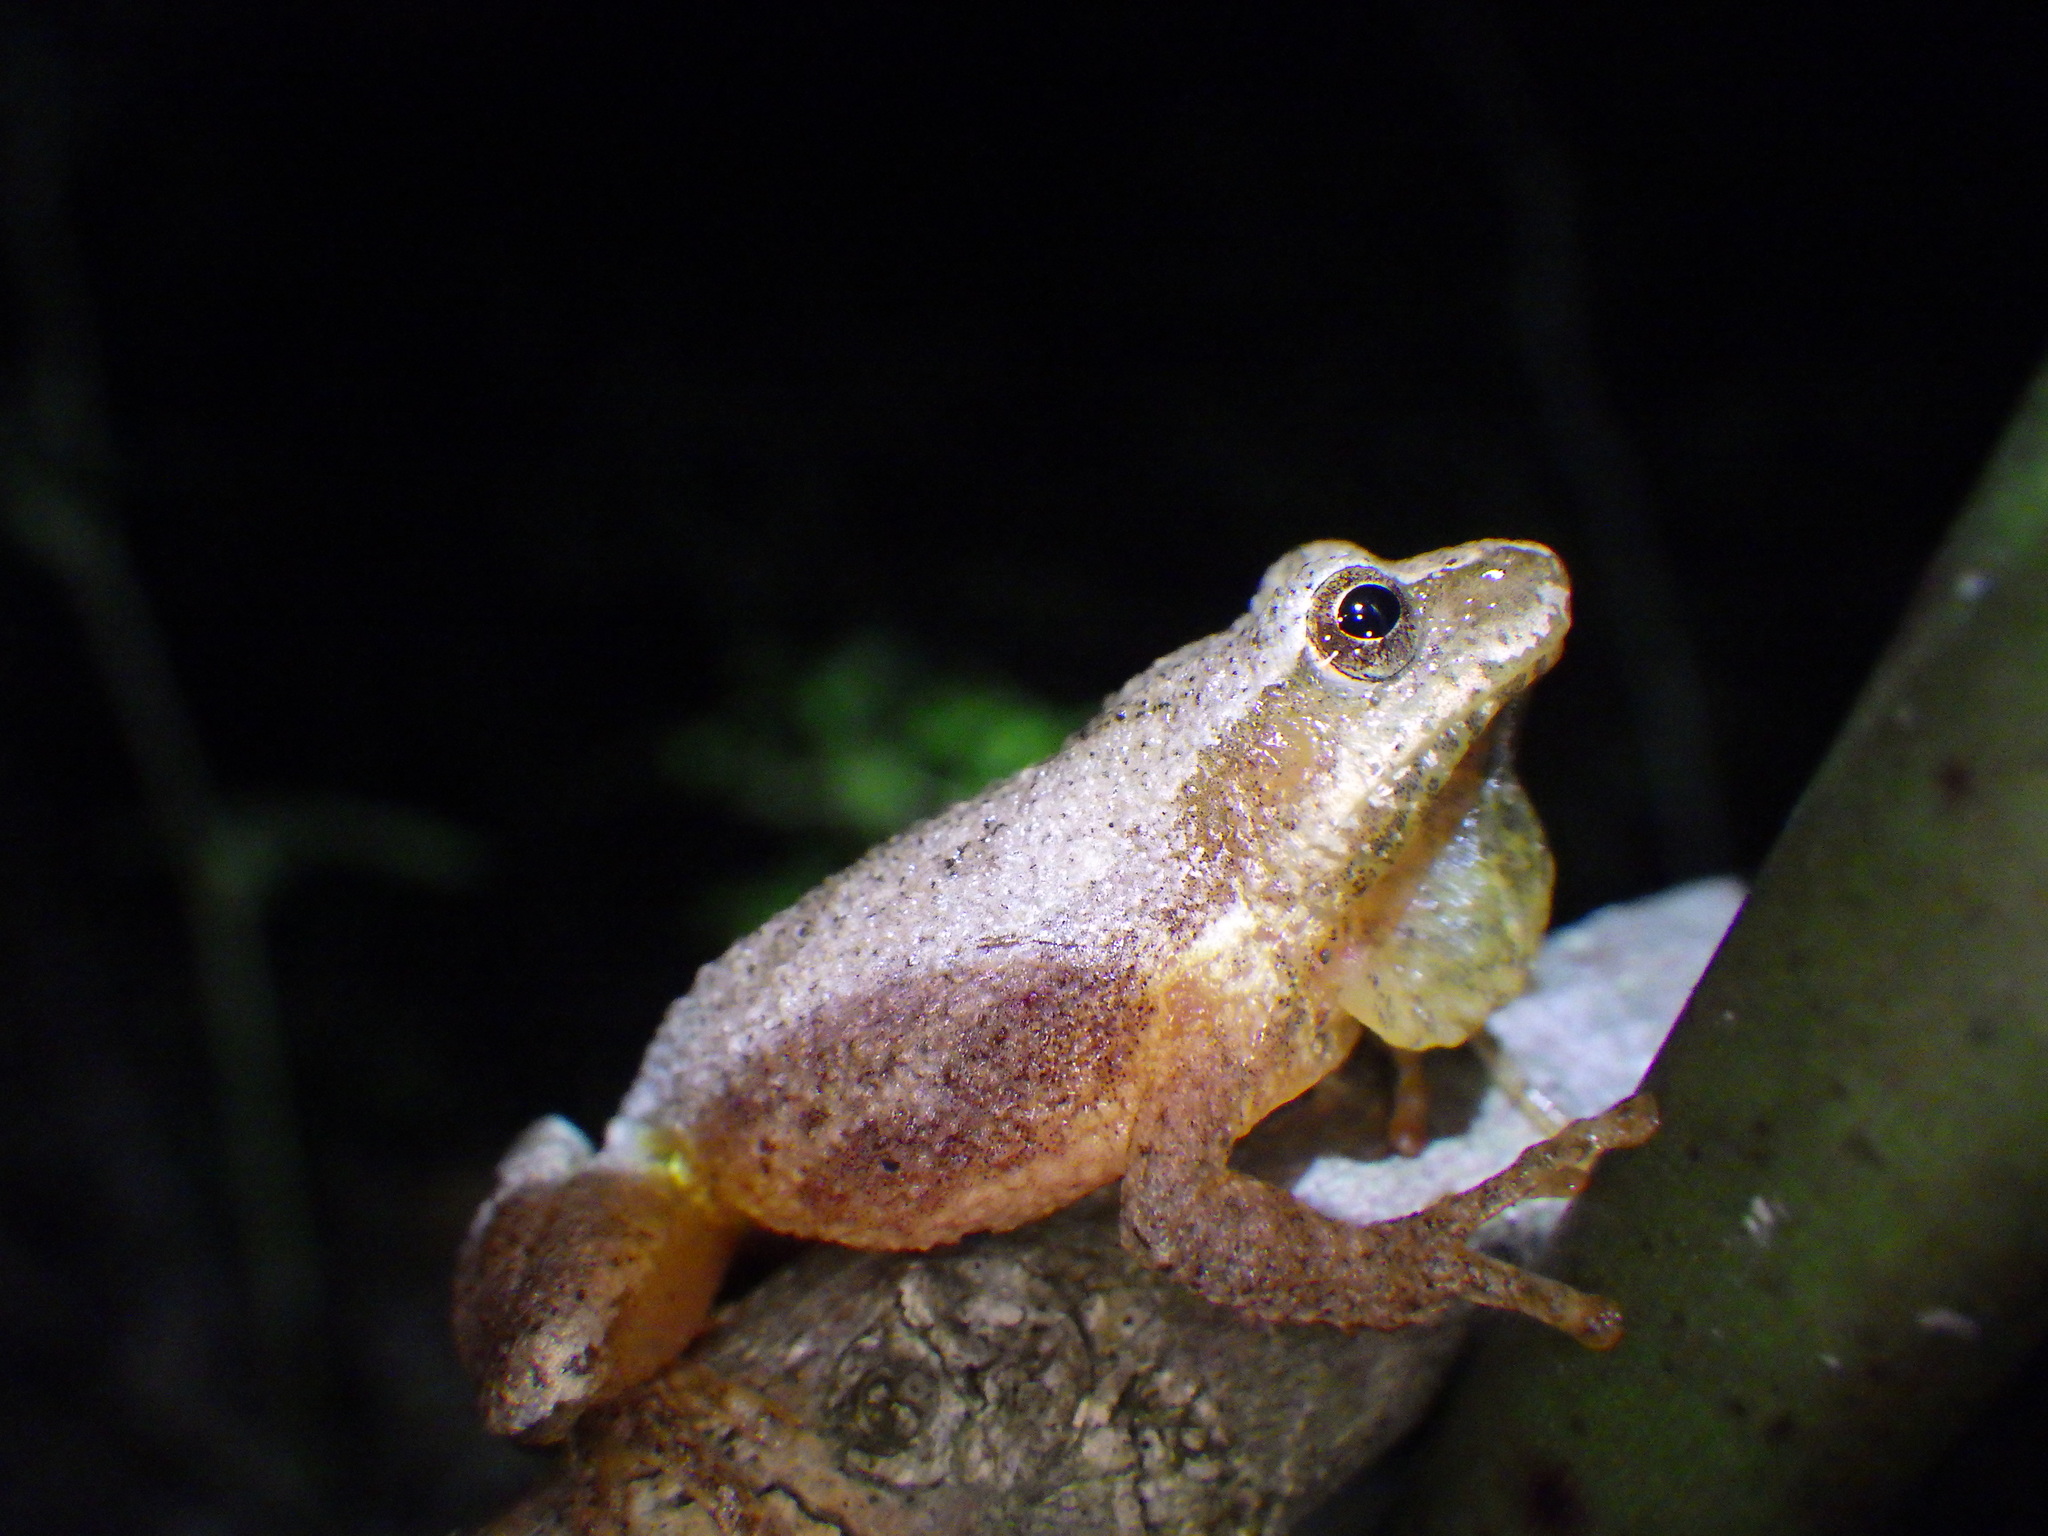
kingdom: Animalia
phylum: Chordata
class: Amphibia
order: Anura
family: Hylidae
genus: Pseudacris
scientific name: Pseudacris crucifer
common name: Spring peeper
